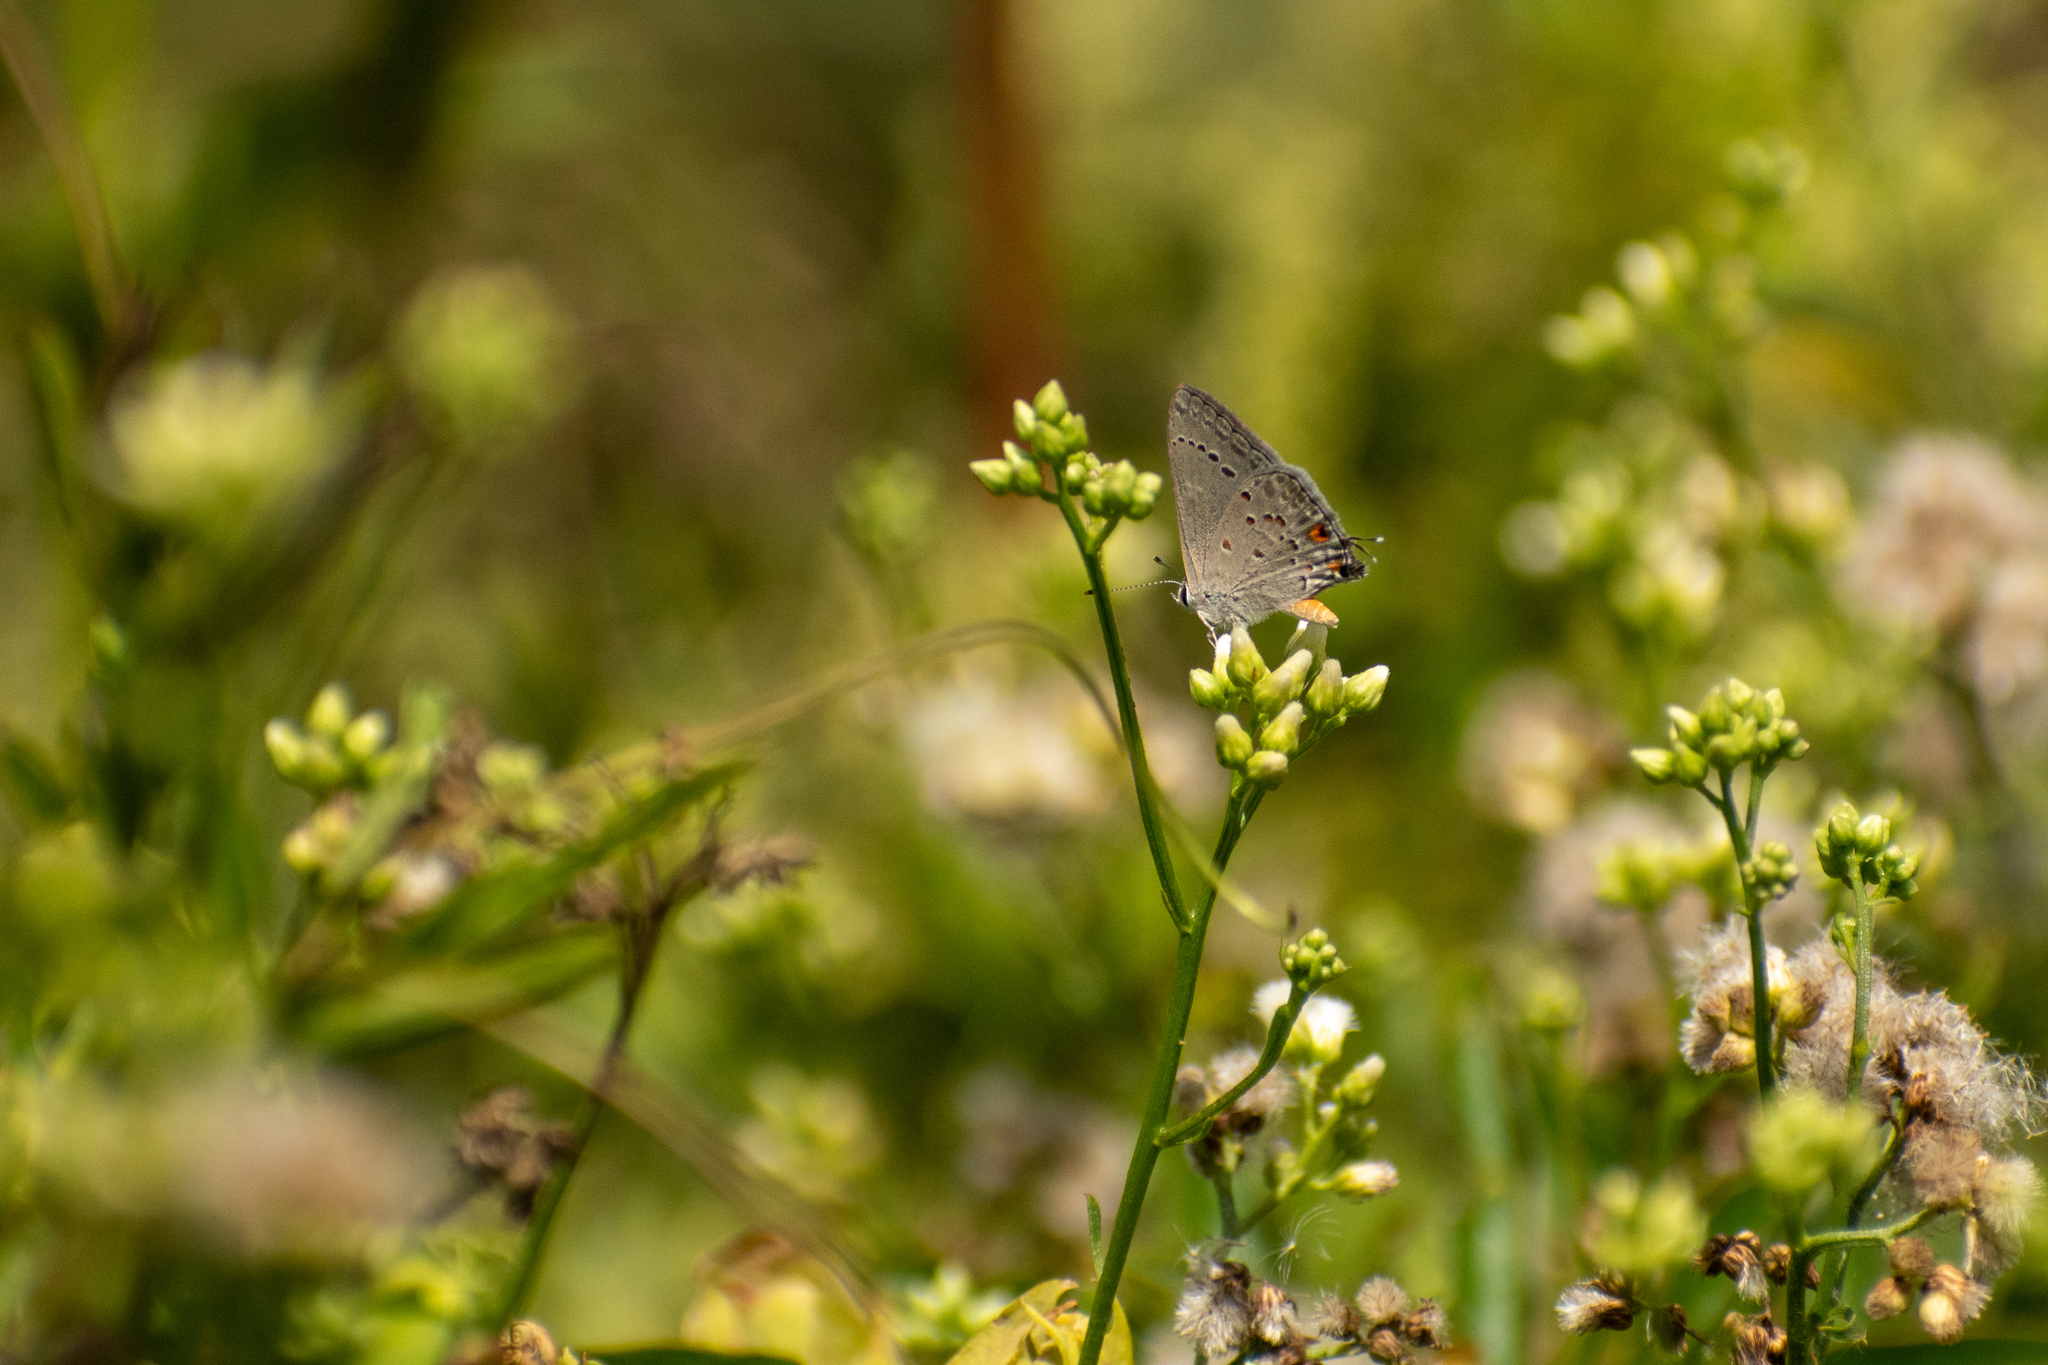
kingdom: Animalia
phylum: Arthropoda
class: Insecta
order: Lepidoptera
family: Lycaenidae
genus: Strymon
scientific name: Strymon eurytulus
